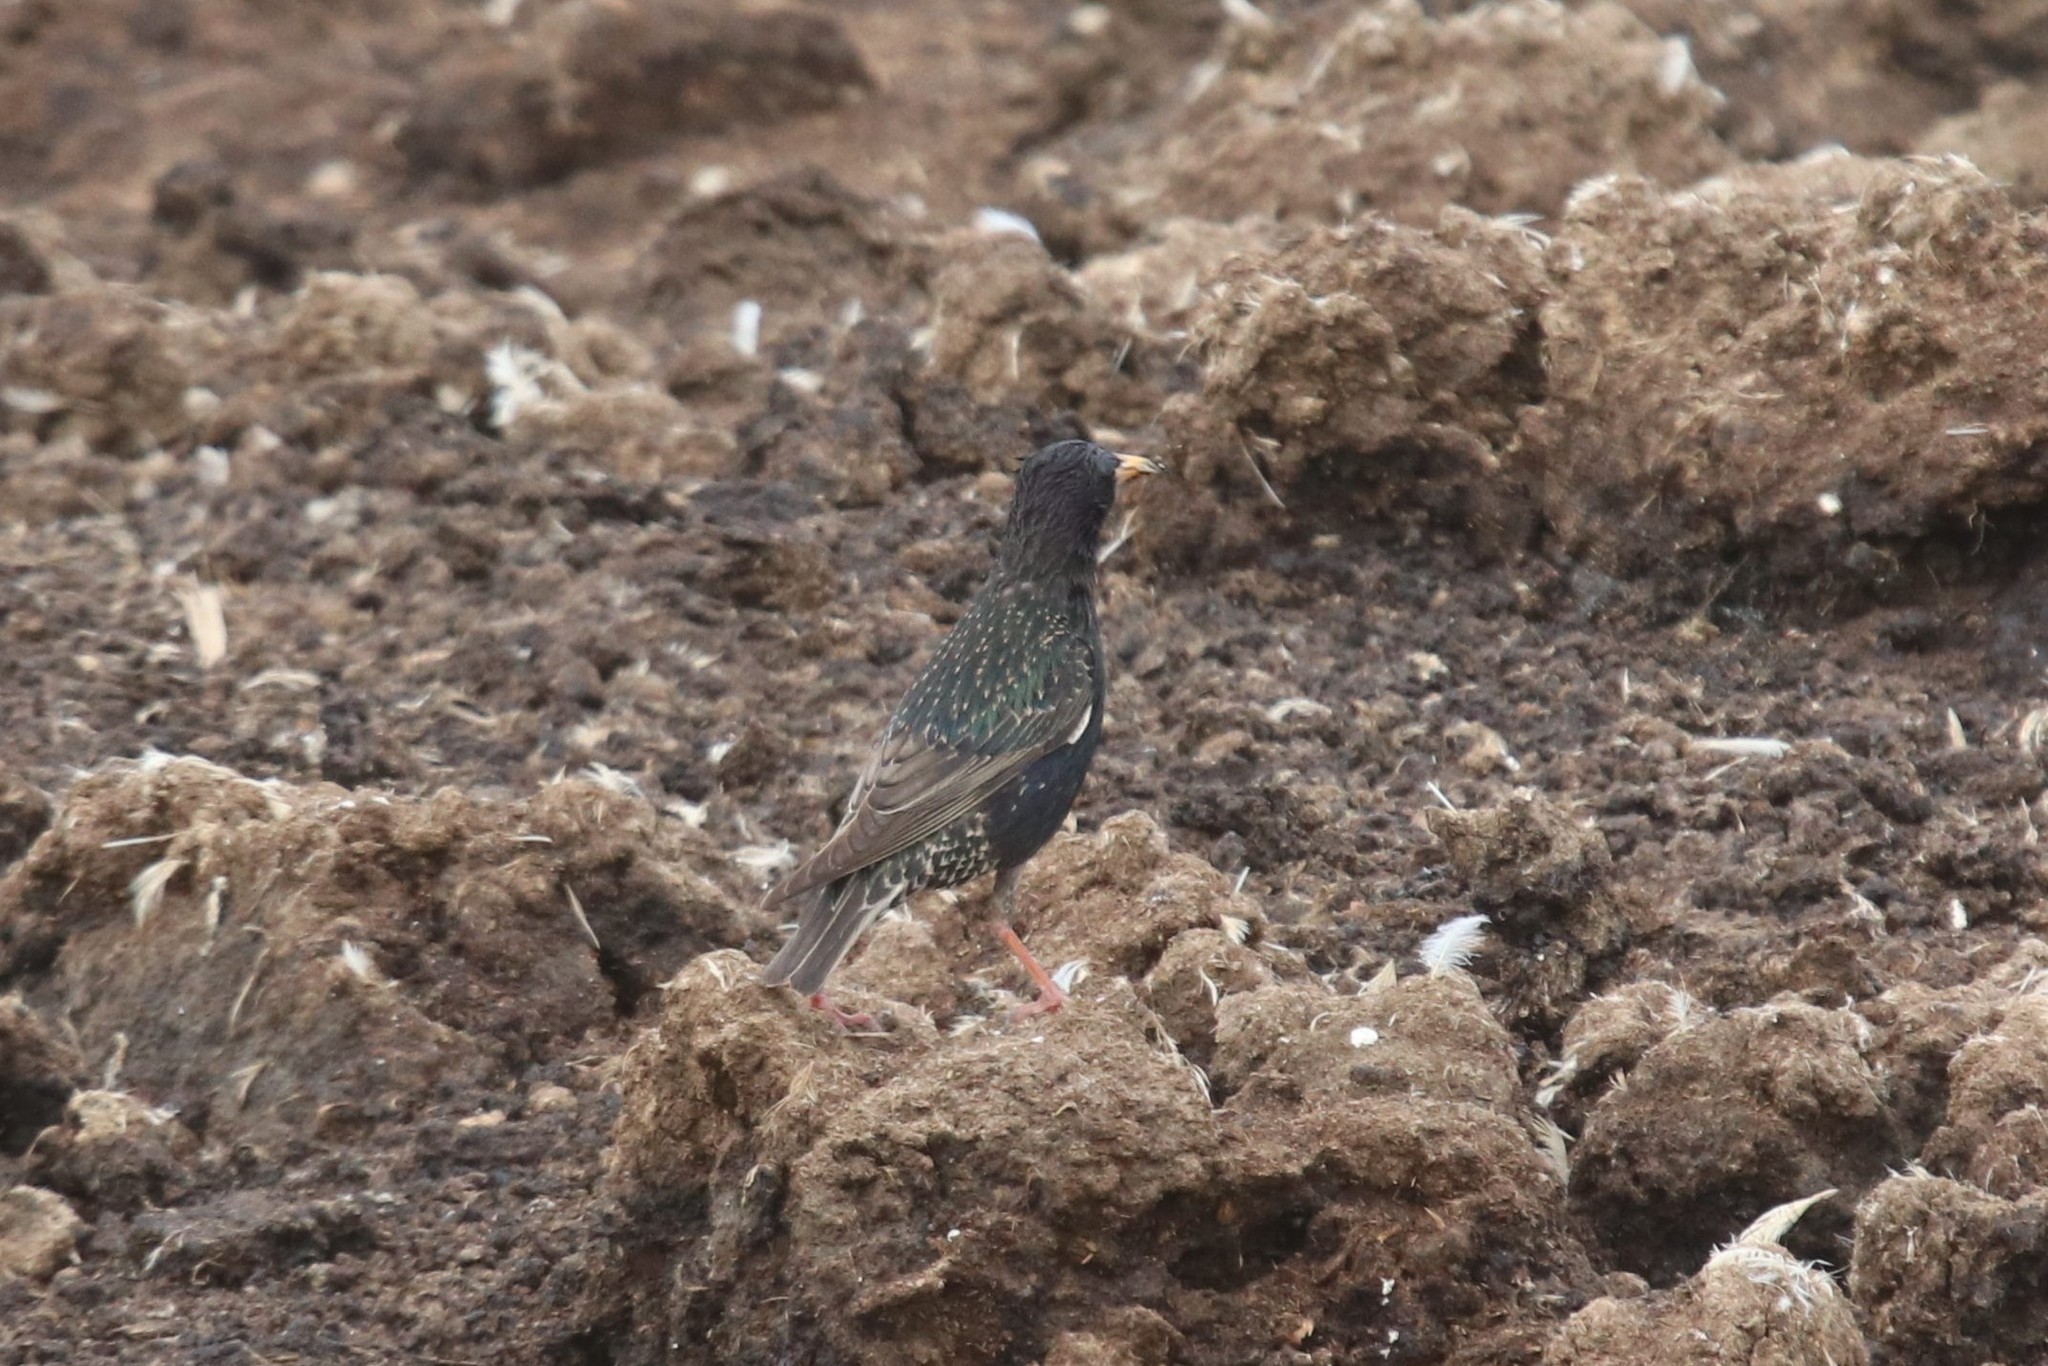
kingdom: Animalia
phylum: Chordata
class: Aves
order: Passeriformes
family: Sturnidae
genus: Sturnus
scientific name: Sturnus vulgaris
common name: Common starling
